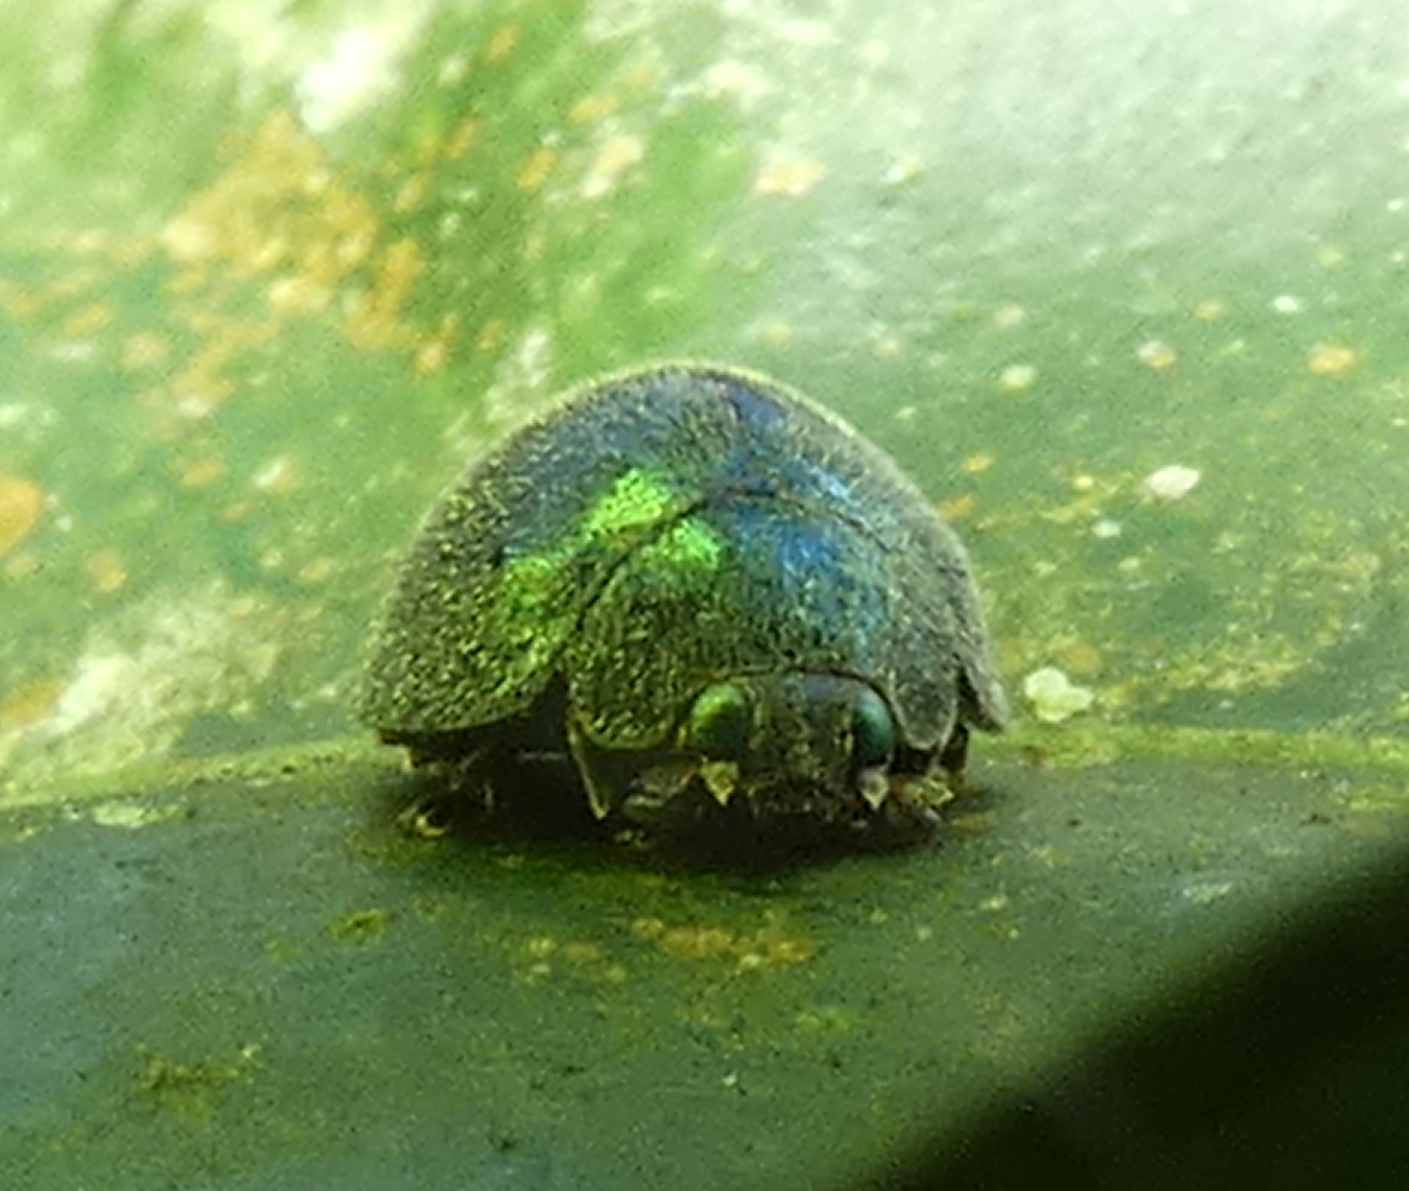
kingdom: Animalia
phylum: Arthropoda
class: Insecta
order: Coleoptera
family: Coccinellidae
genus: Chnoodes
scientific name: Chnoodes tarsalis
